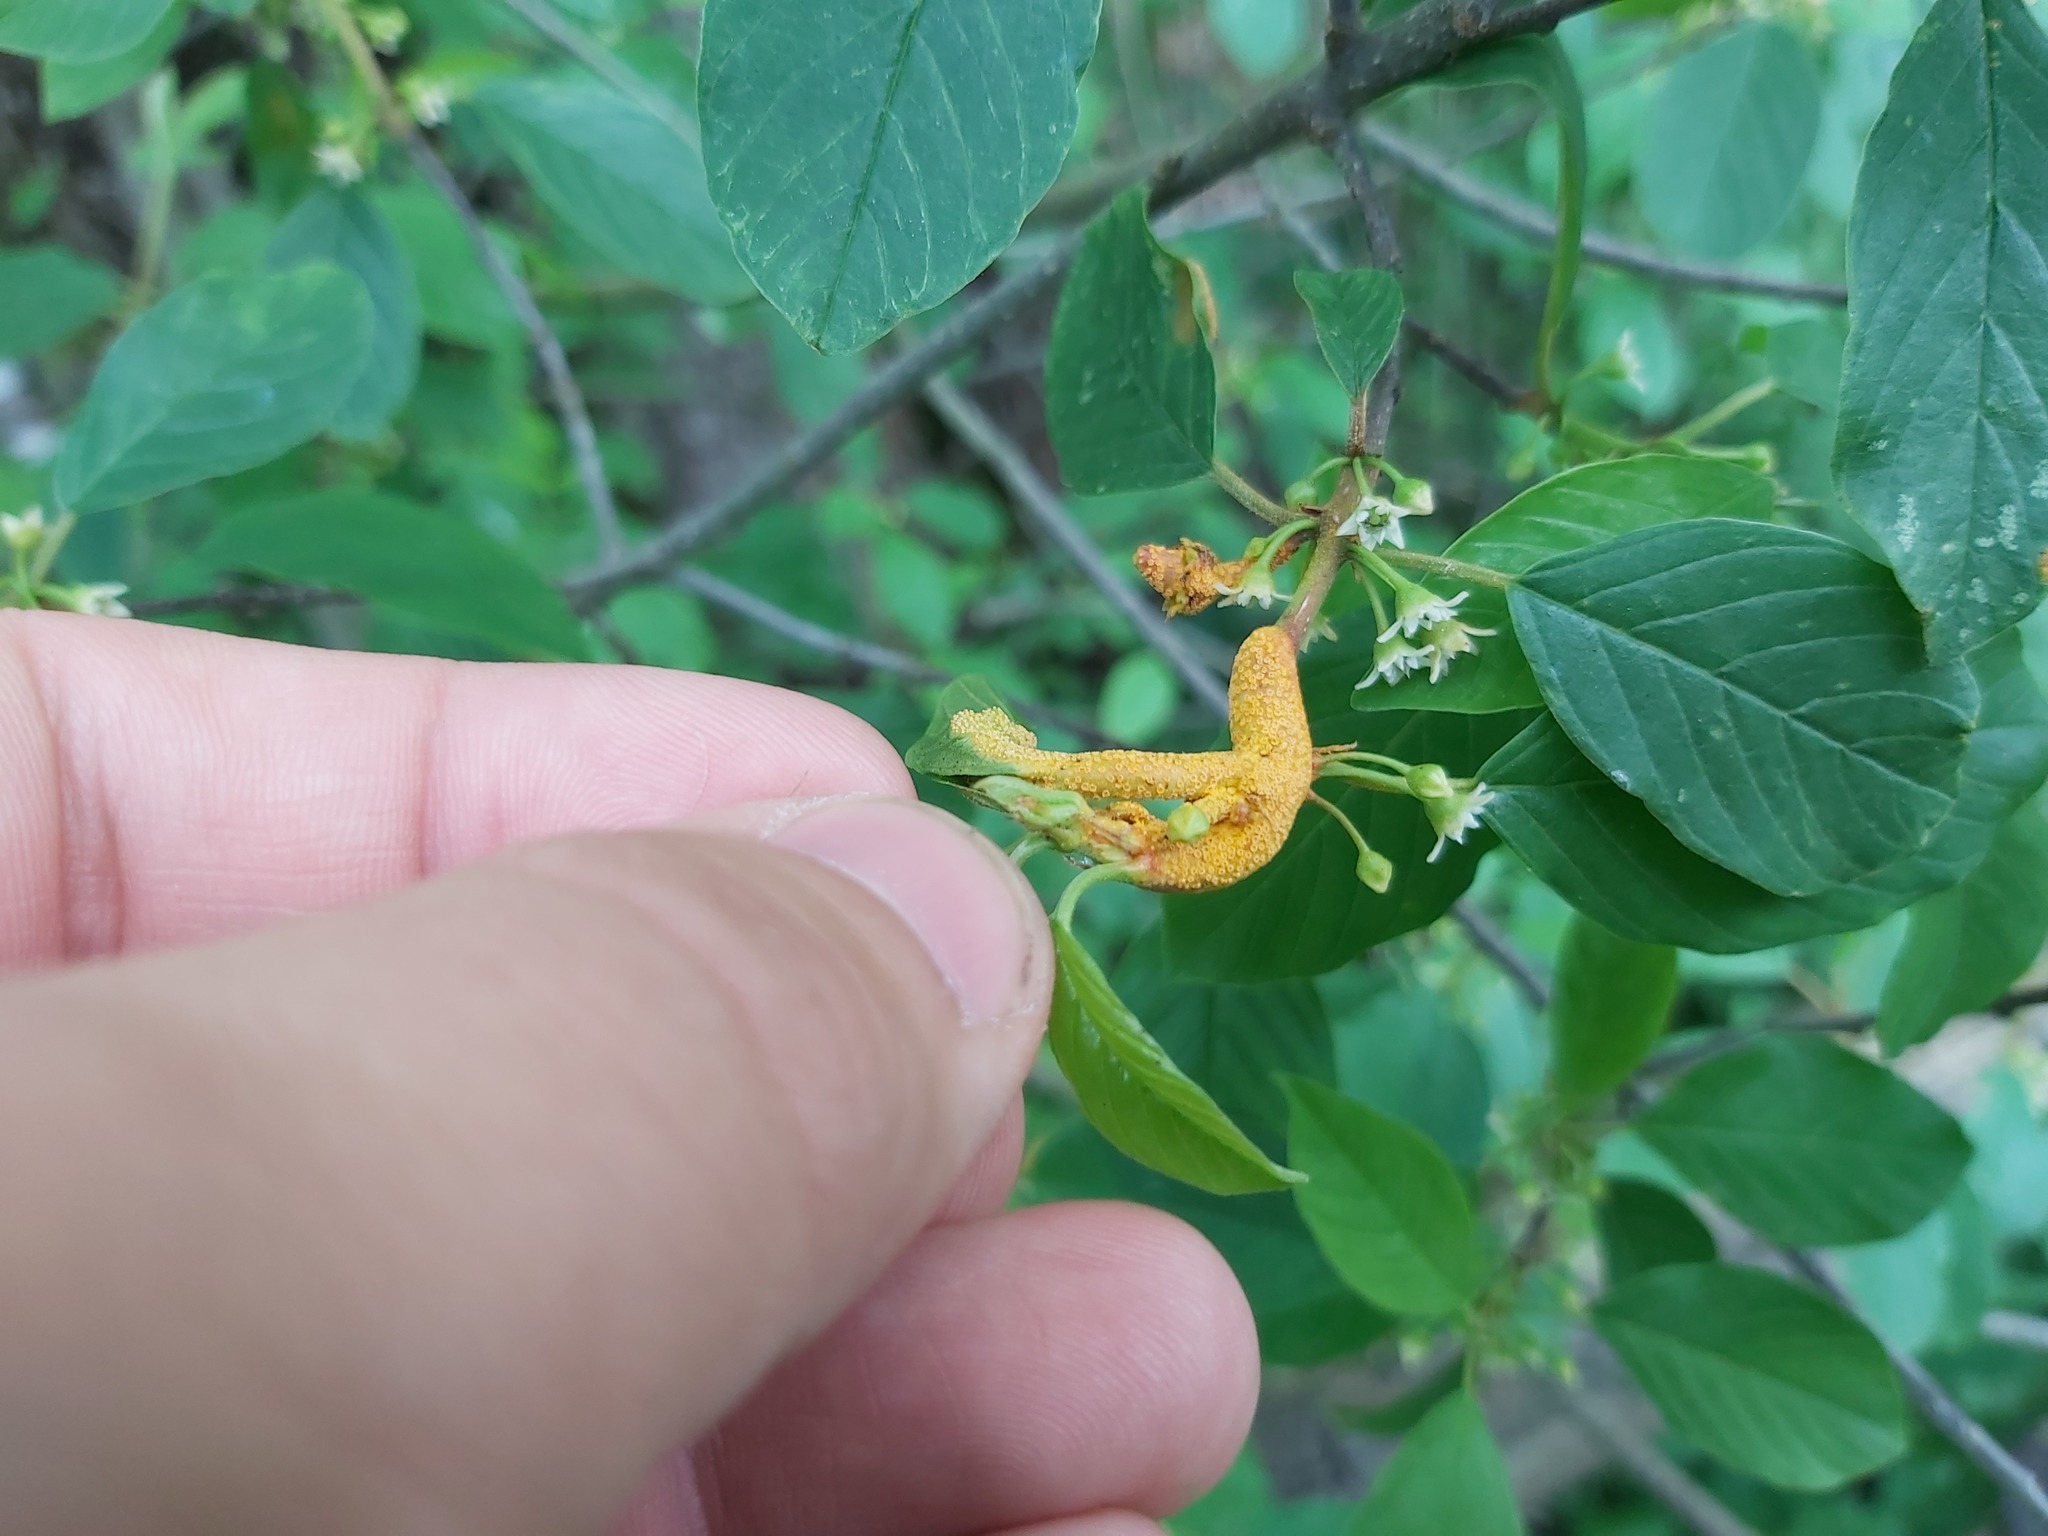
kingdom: Fungi
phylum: Basidiomycota
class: Pucciniomycetes
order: Pucciniales
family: Pucciniaceae
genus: Puccinia
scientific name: Puccinia coronata
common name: Crown rust
